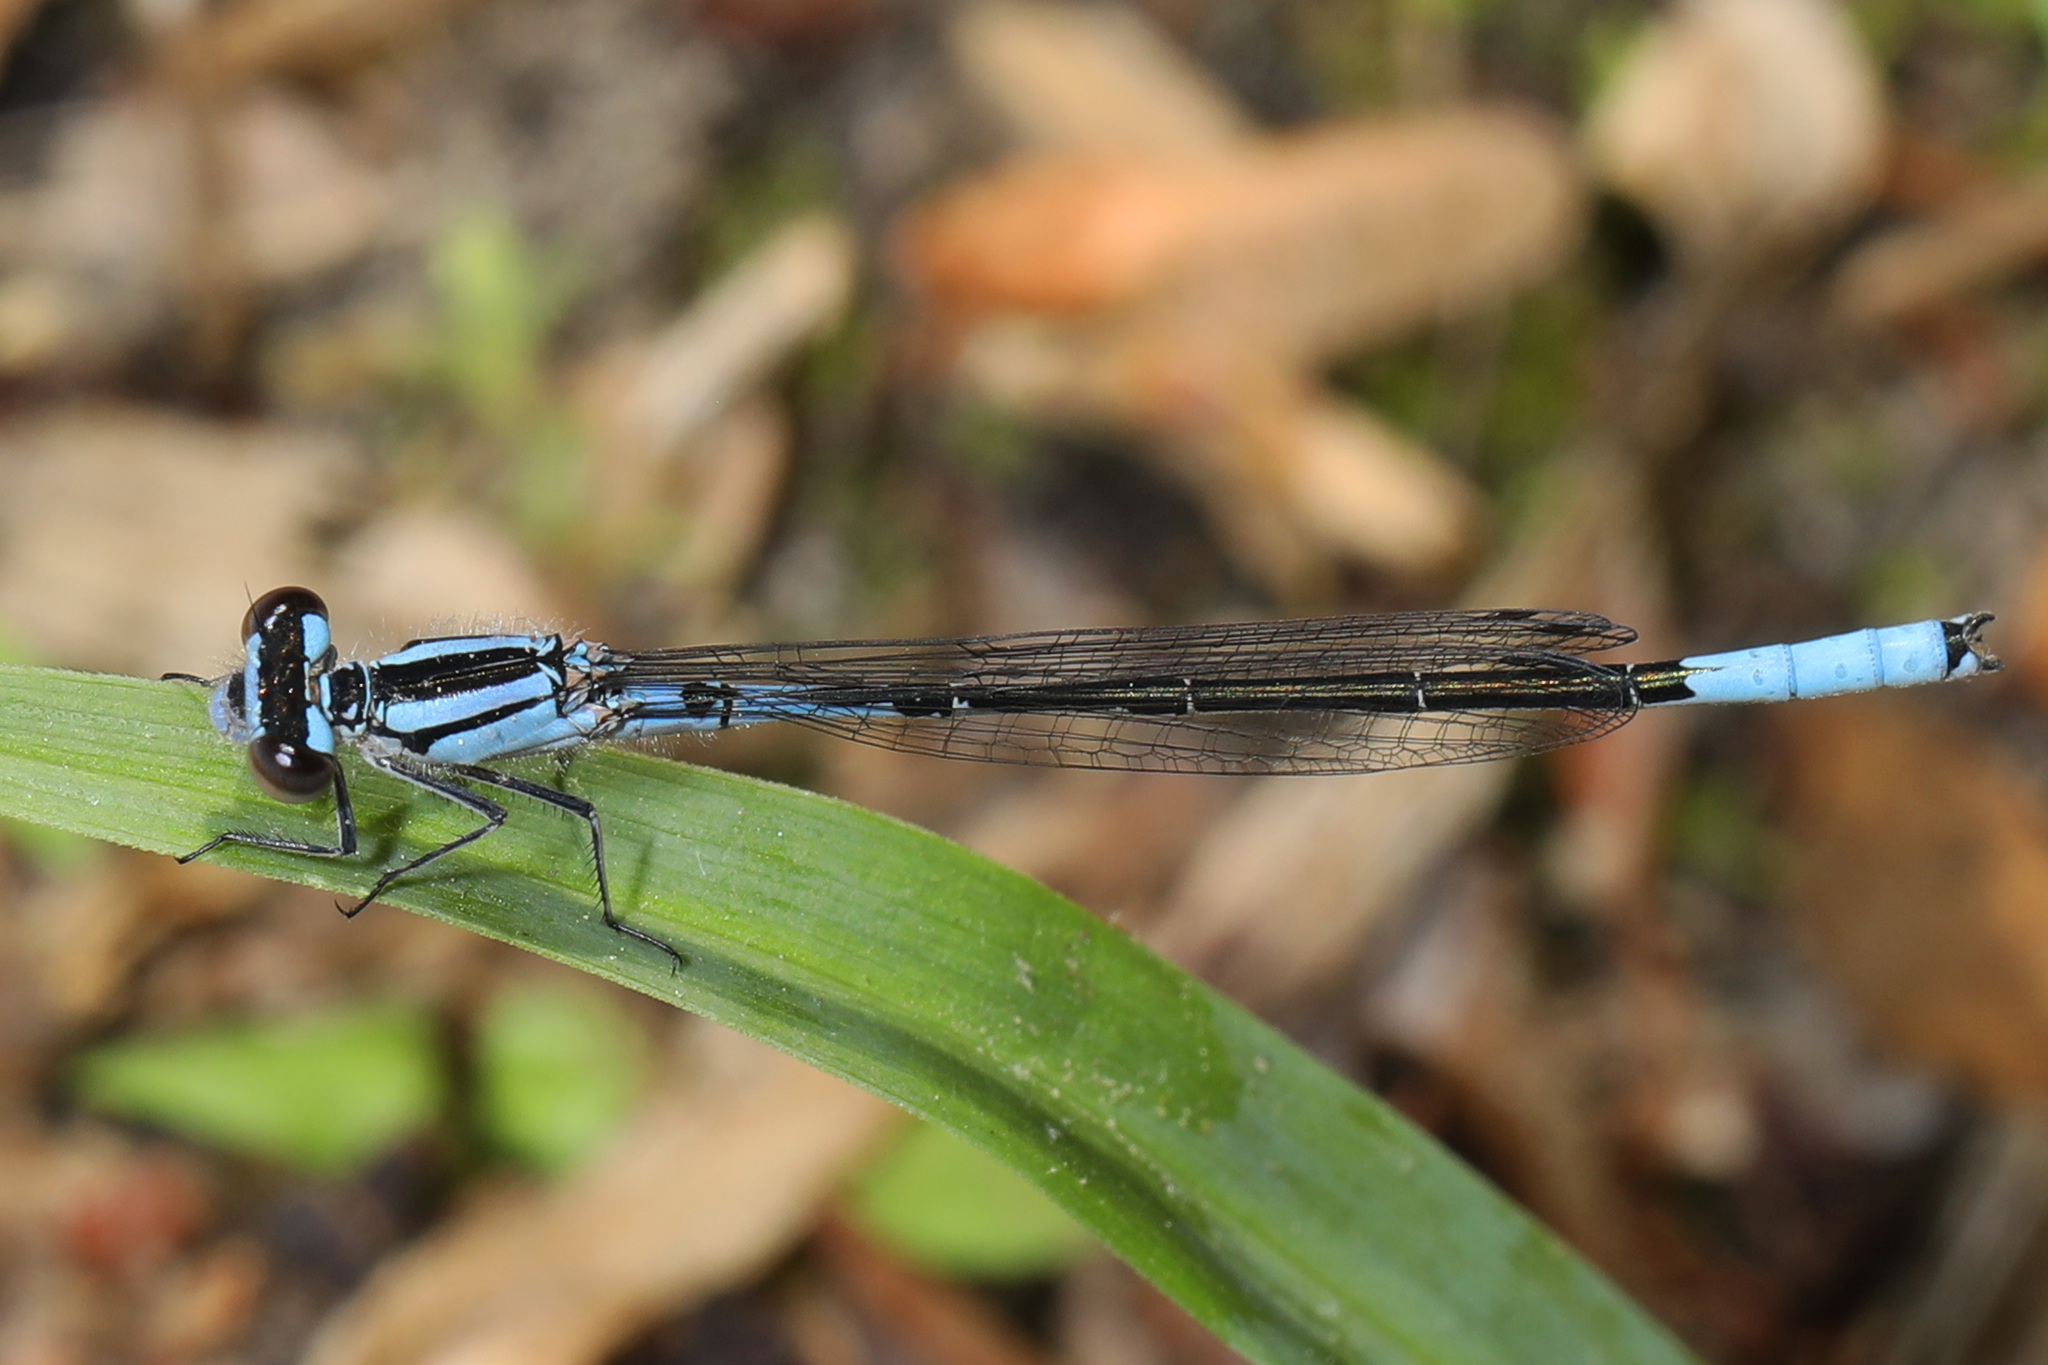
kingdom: Animalia
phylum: Arthropoda
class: Insecta
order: Odonata
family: Coenagrionidae
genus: Enallagma
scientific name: Enallagma aspersum
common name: Azure bluet
